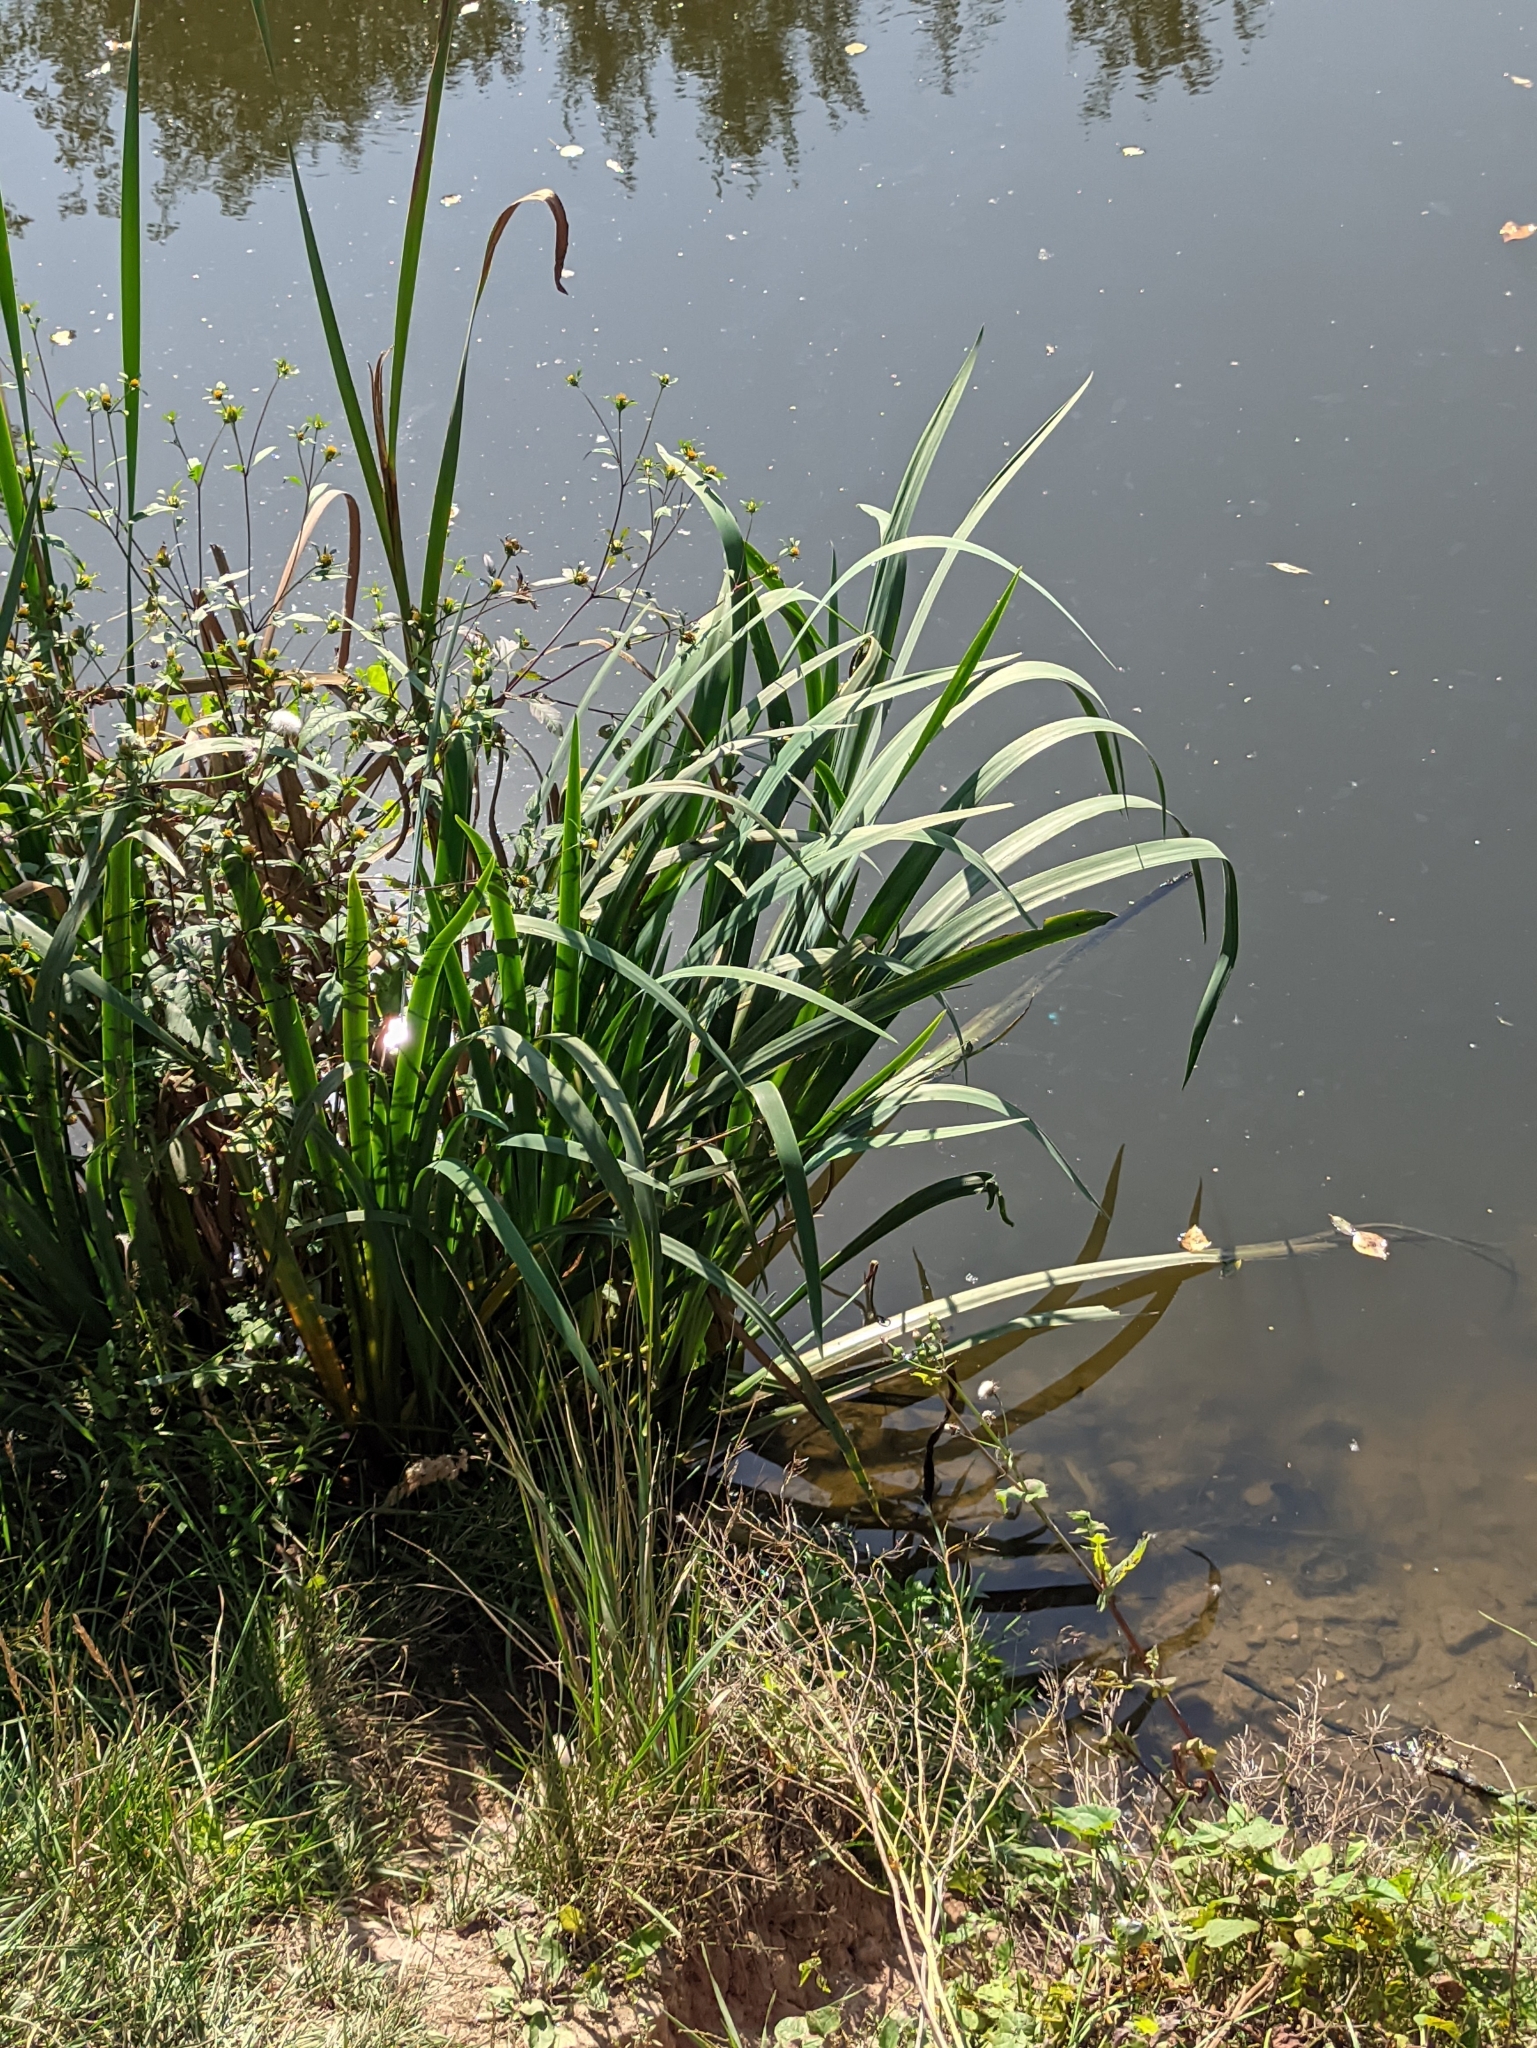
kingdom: Plantae
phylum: Tracheophyta
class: Liliopsida
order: Asparagales
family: Iridaceae
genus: Iris
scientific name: Iris pseudacorus
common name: Yellow flag
